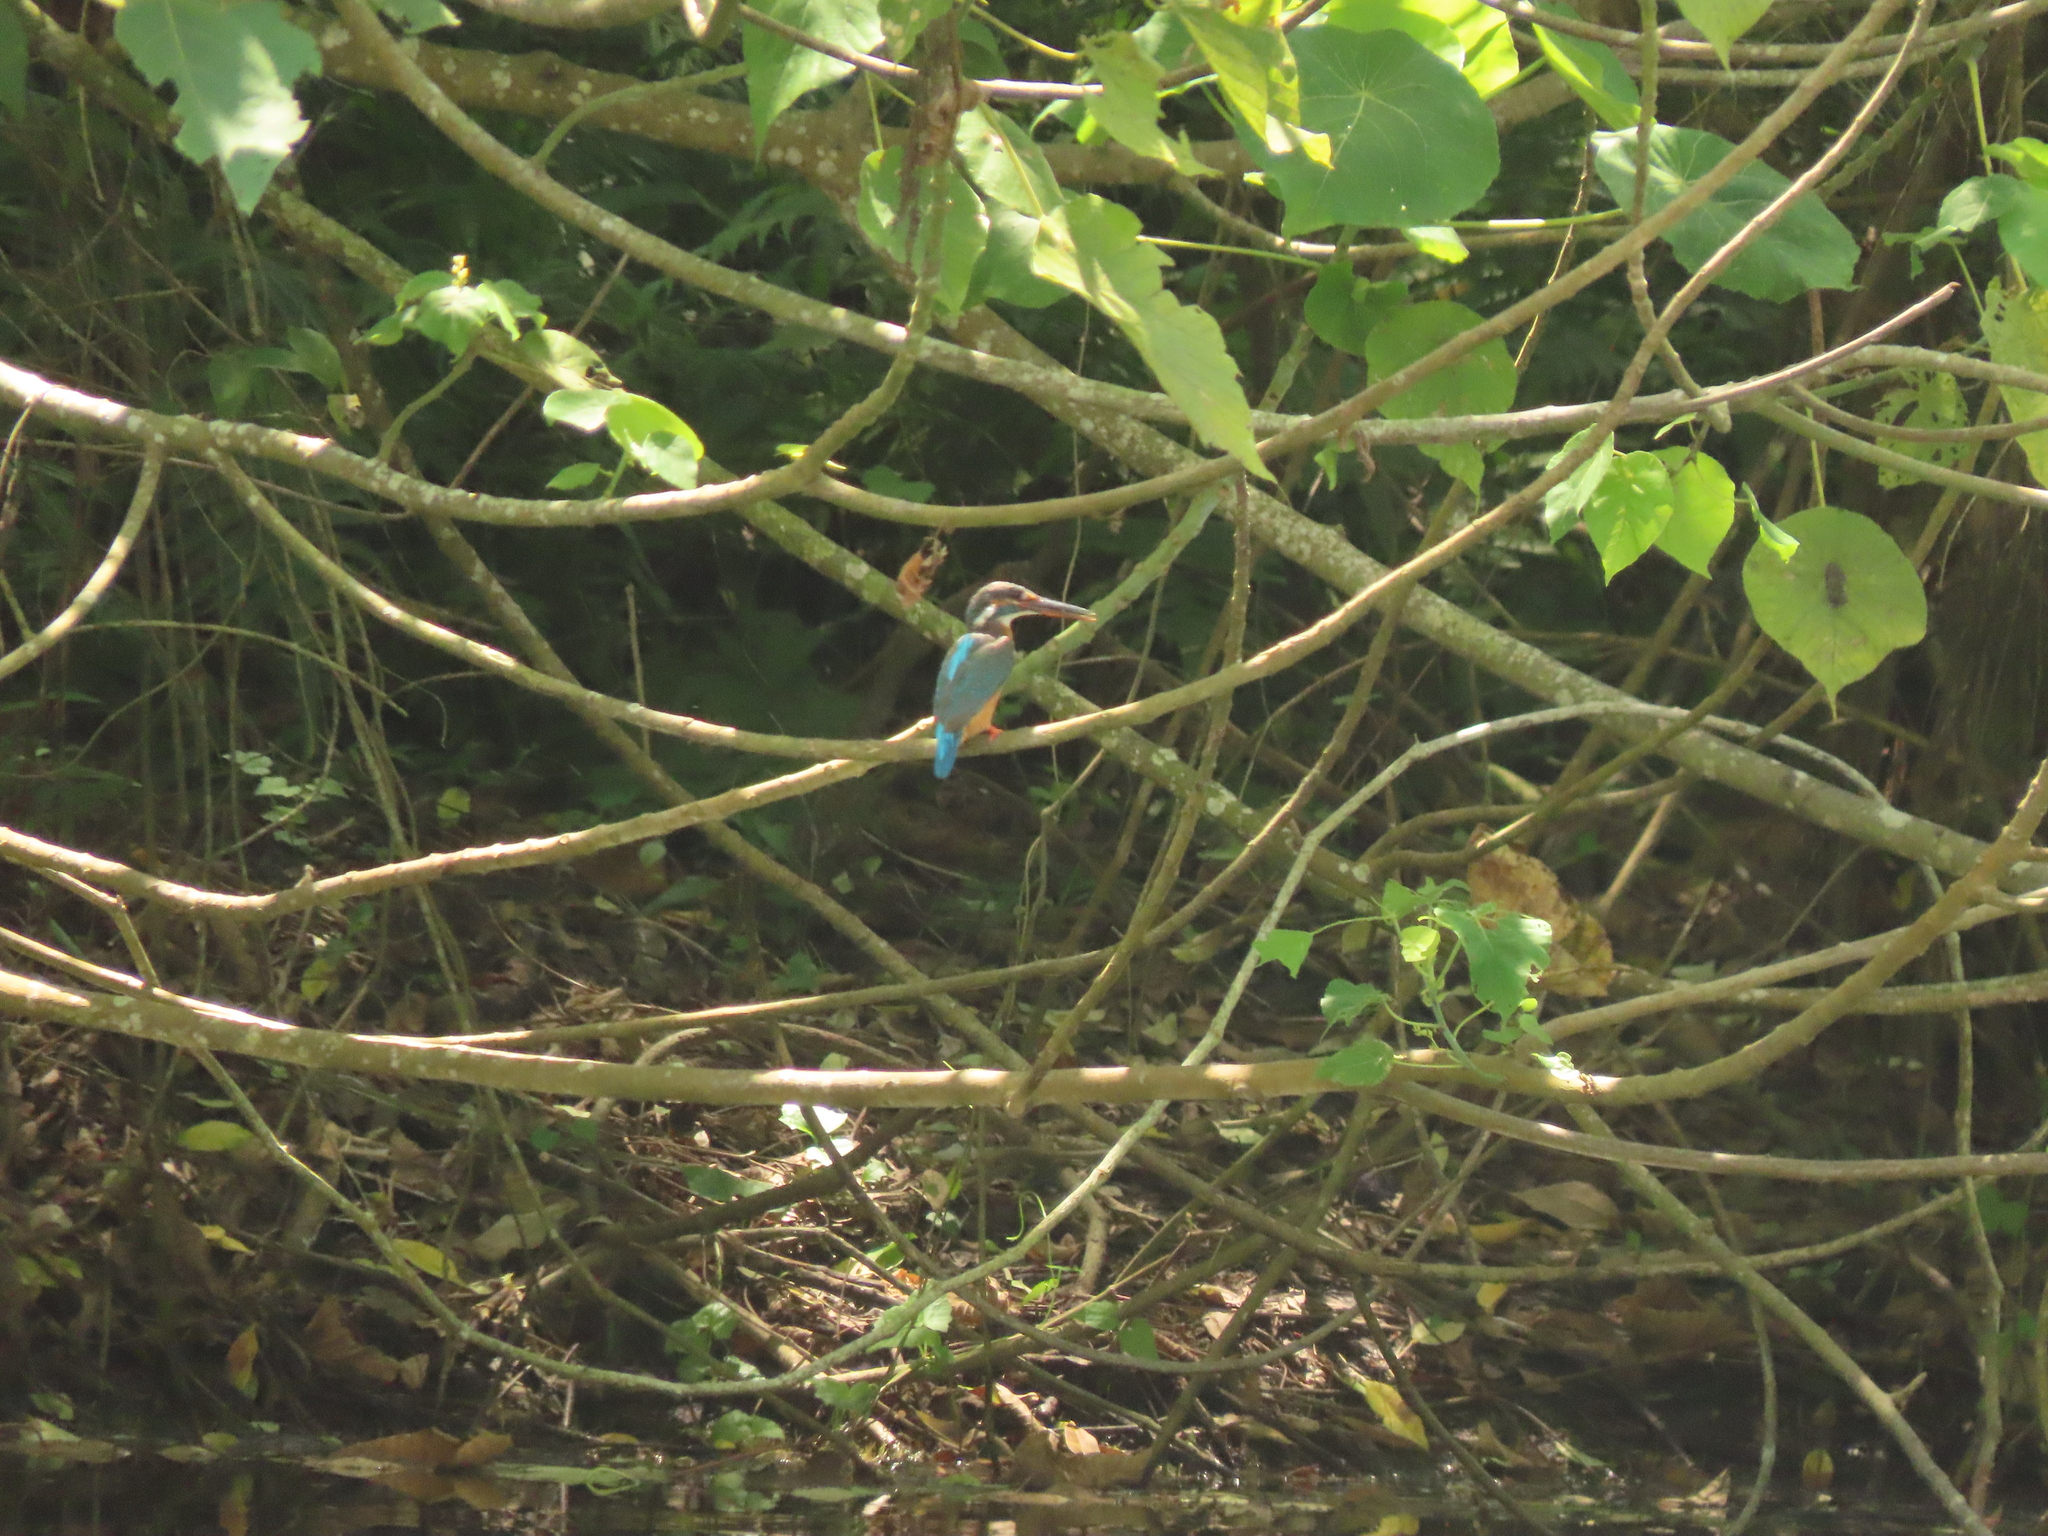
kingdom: Animalia
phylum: Chordata
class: Aves
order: Coraciiformes
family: Alcedinidae
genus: Alcedo
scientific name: Alcedo atthis
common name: Common kingfisher
